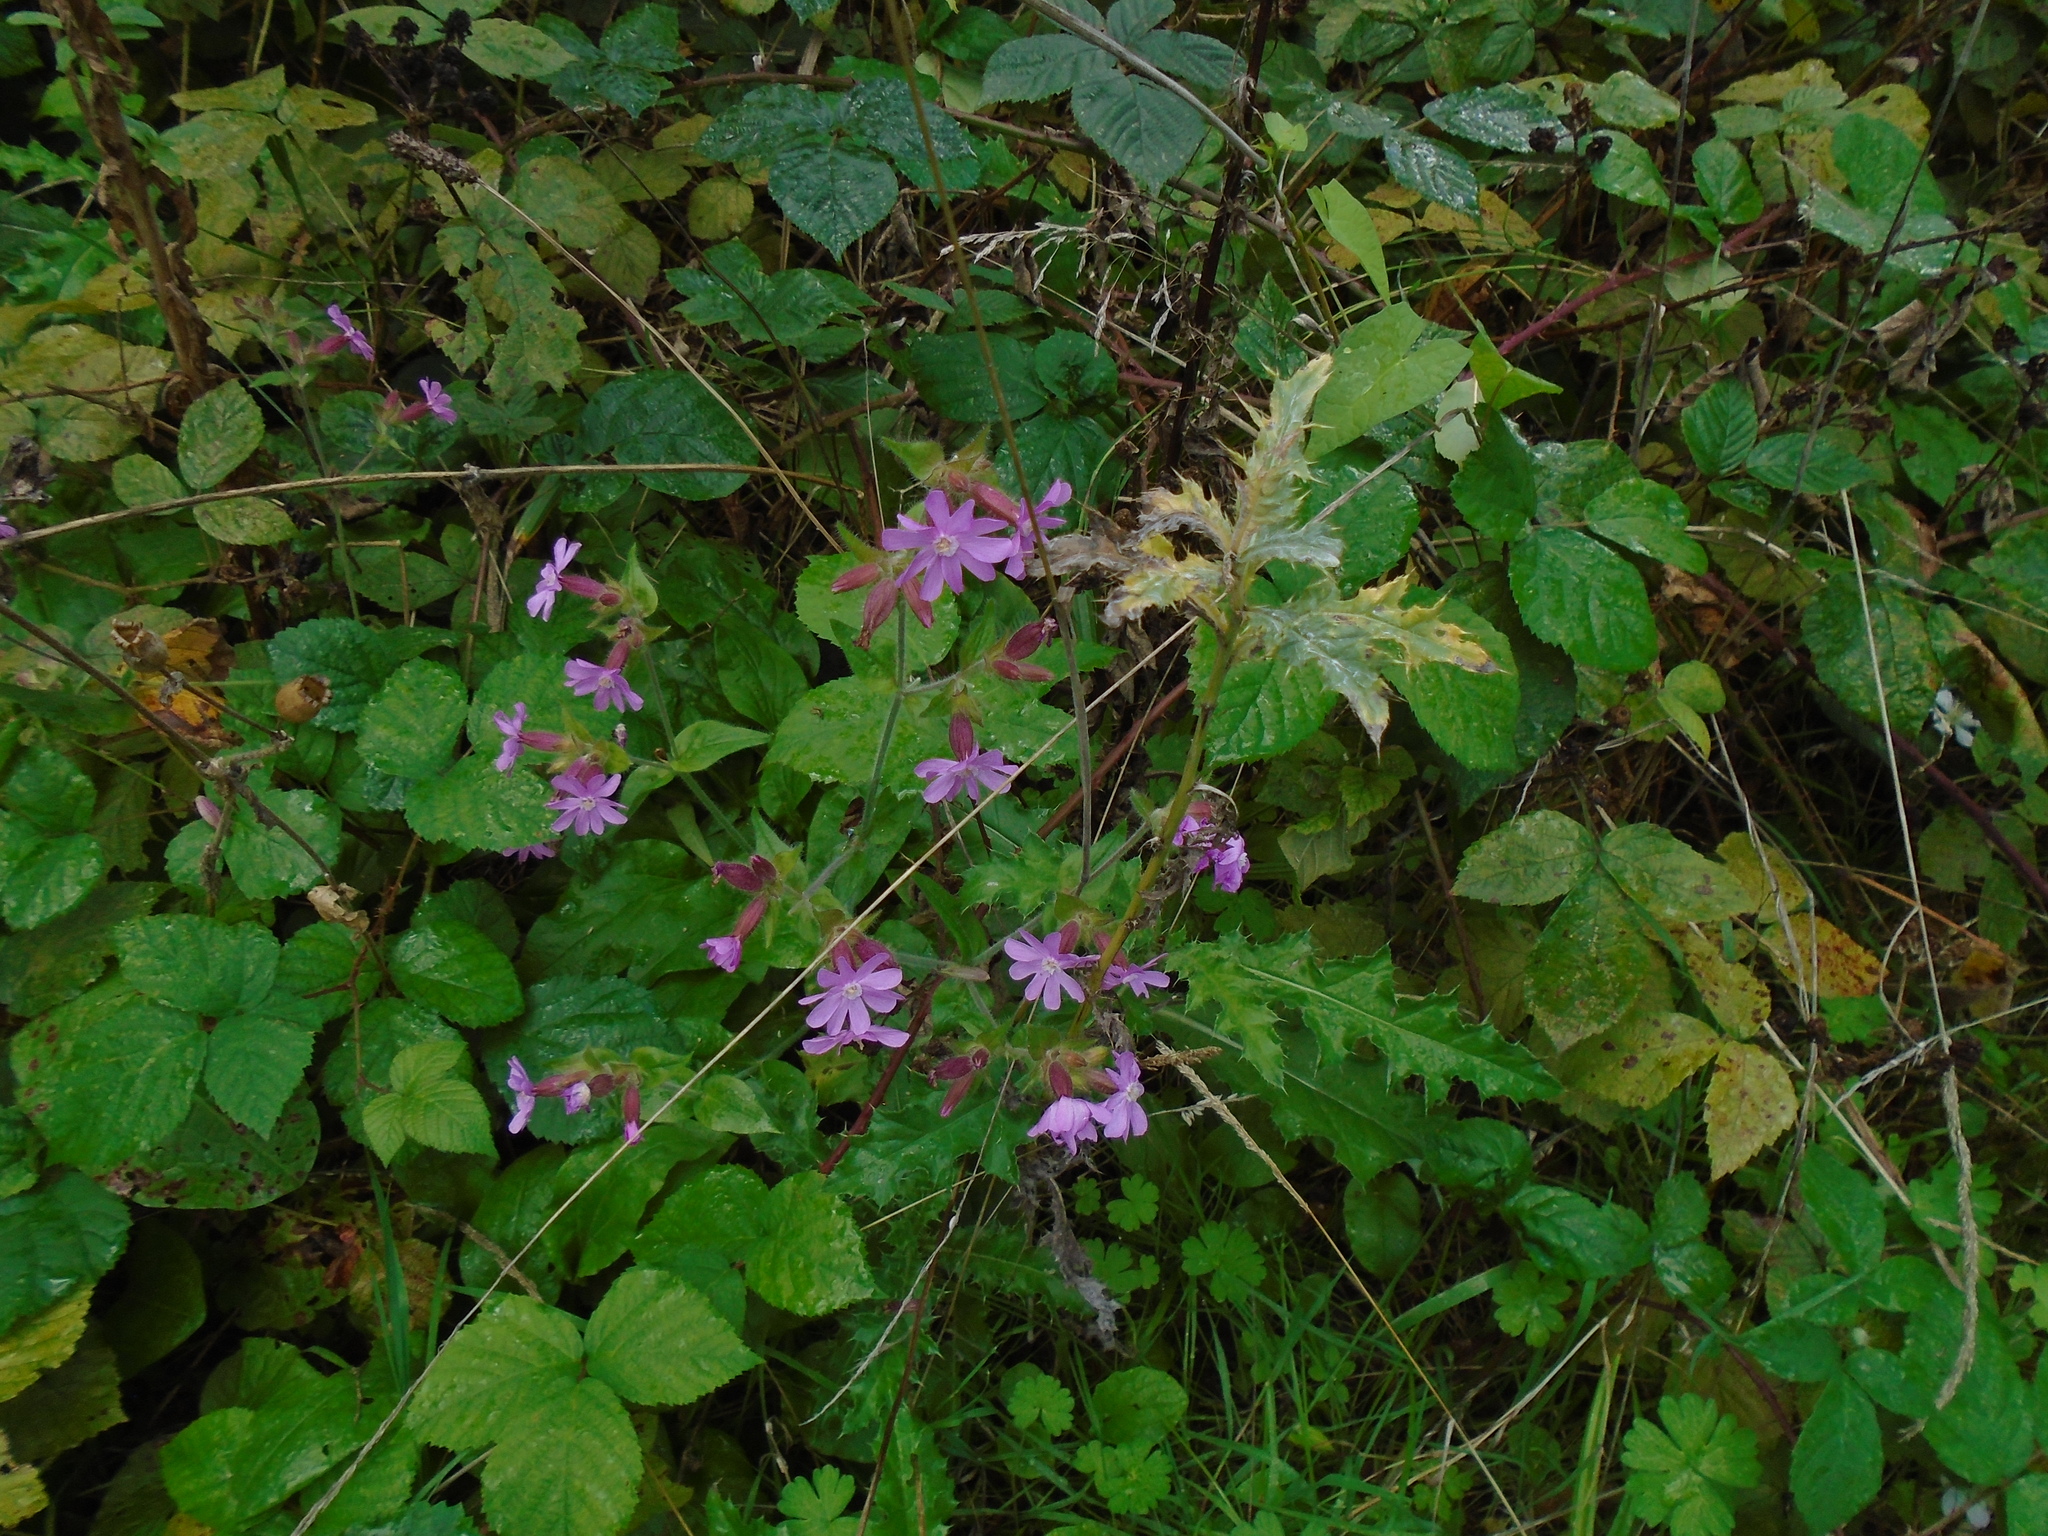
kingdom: Plantae
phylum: Tracheophyta
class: Magnoliopsida
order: Caryophyllales
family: Caryophyllaceae
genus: Silene
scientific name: Silene hampeana
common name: Catchfly
